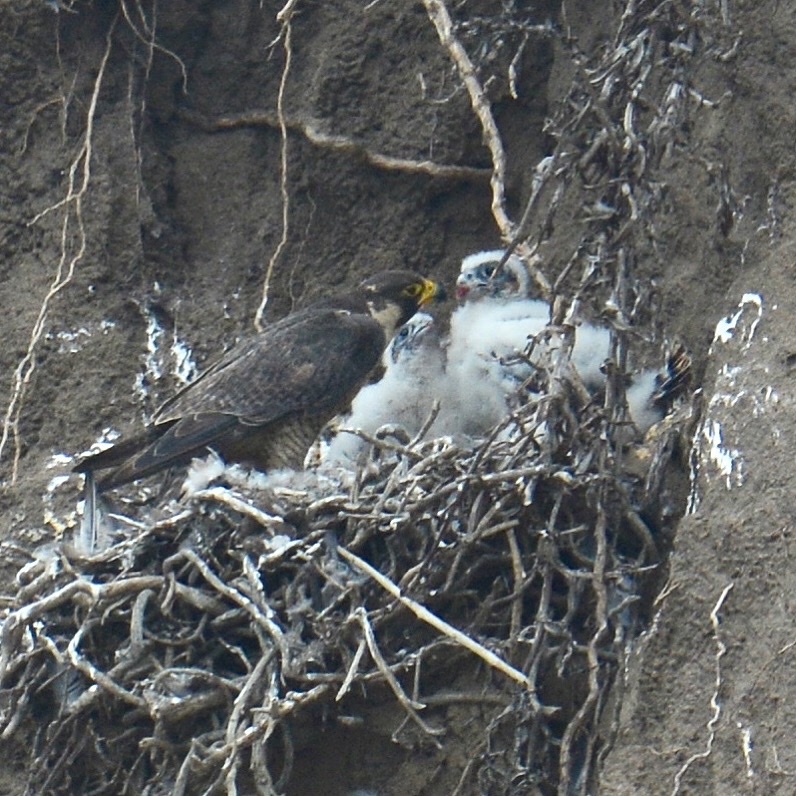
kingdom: Animalia
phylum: Chordata
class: Aves
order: Falconiformes
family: Falconidae
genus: Falco
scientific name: Falco peregrinus
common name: Peregrine falcon
